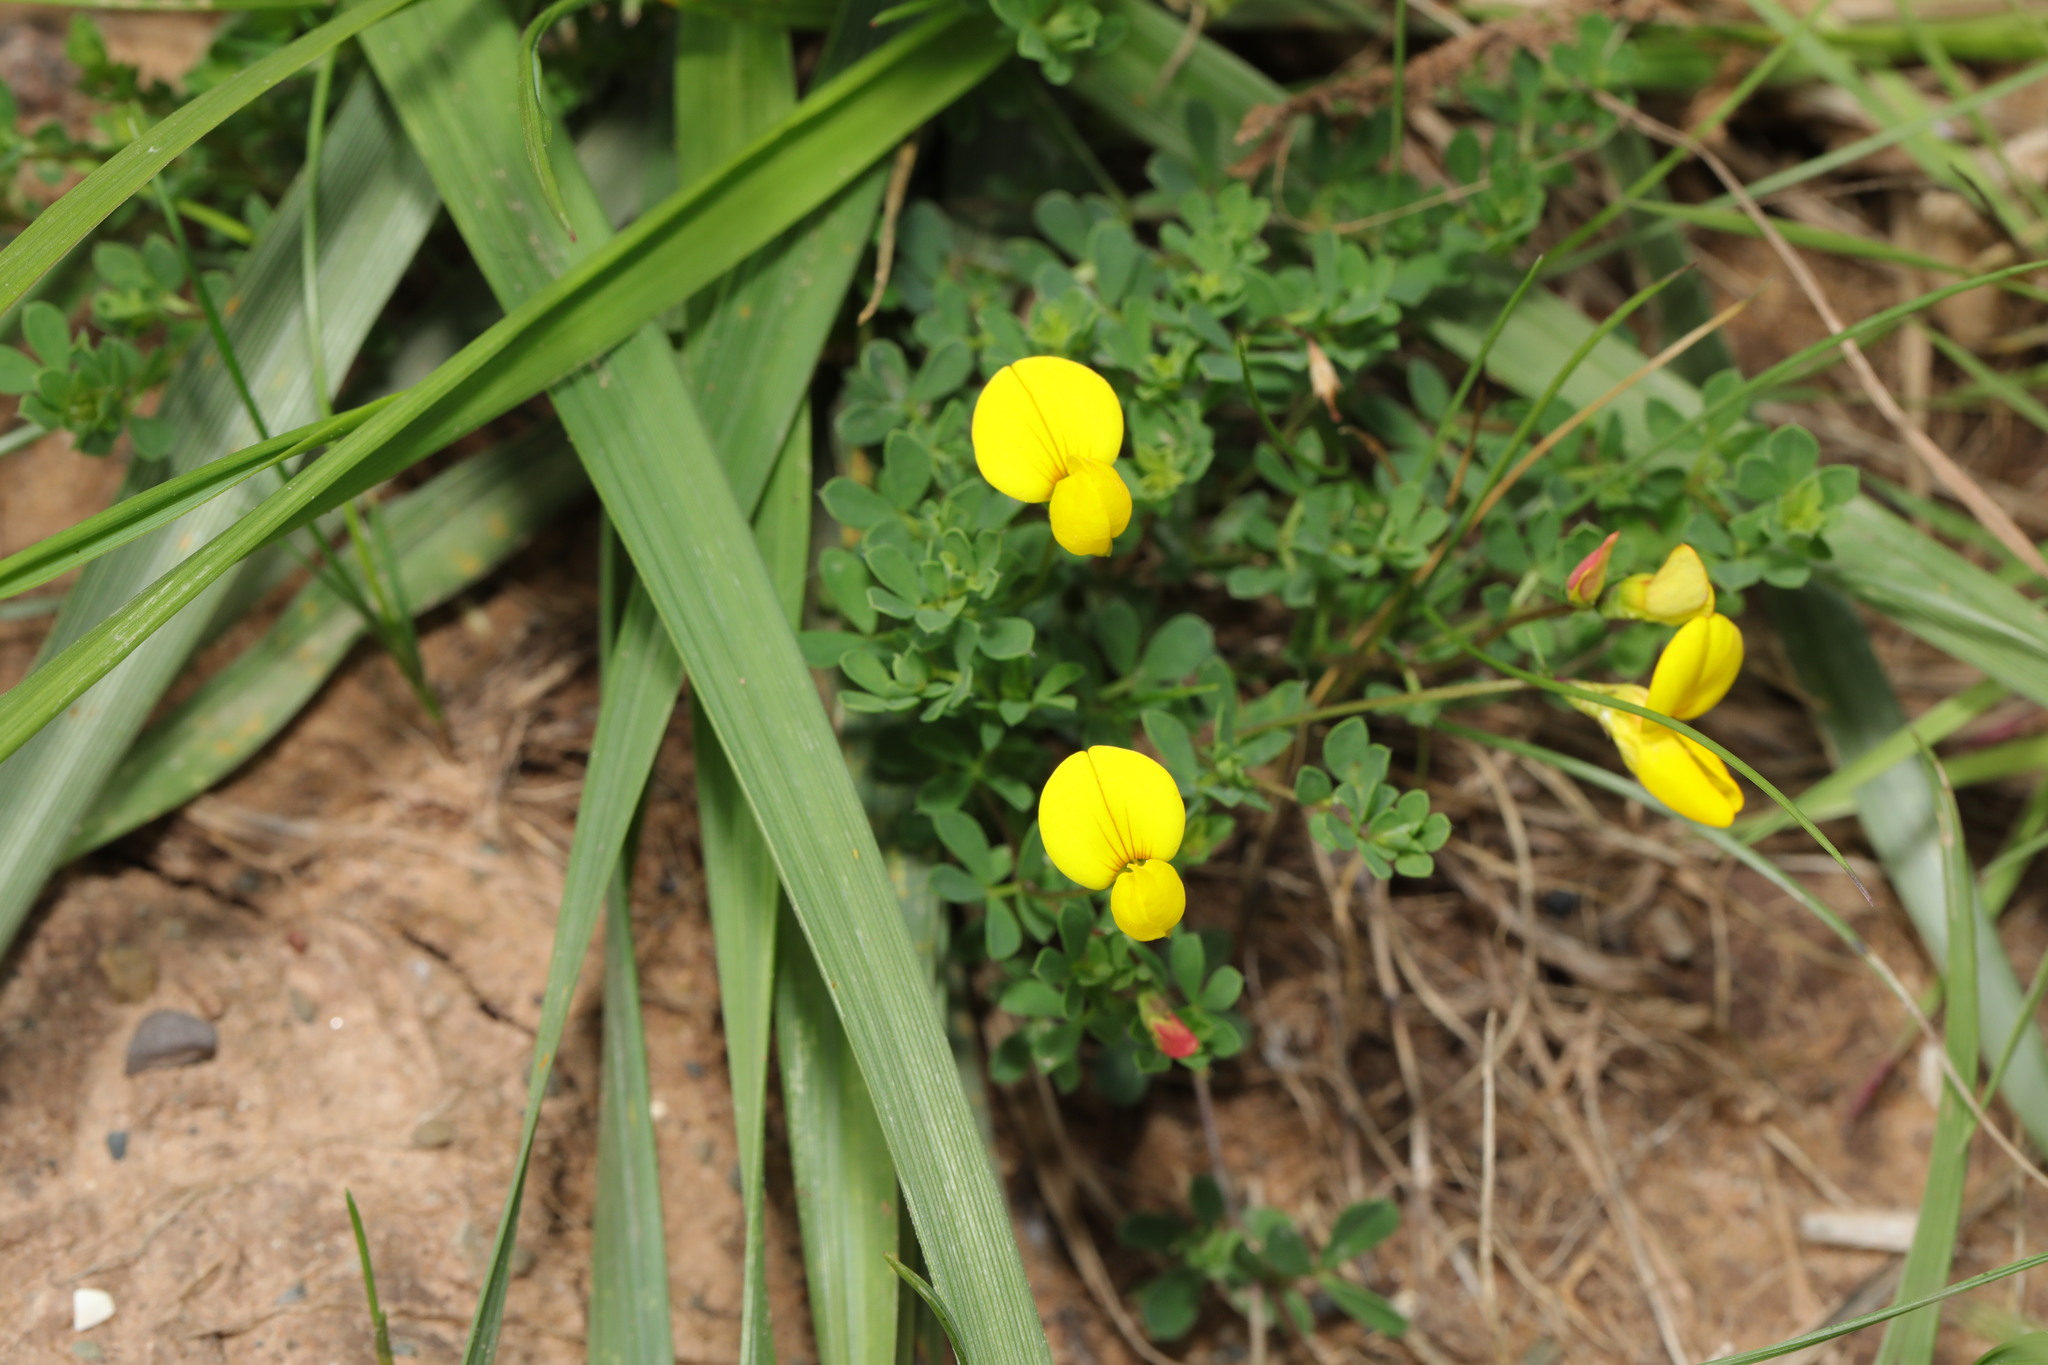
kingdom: Plantae
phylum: Tracheophyta
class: Magnoliopsida
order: Fabales
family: Fabaceae
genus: Lotus
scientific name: Lotus corniculatus
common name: Common bird's-foot-trefoil
